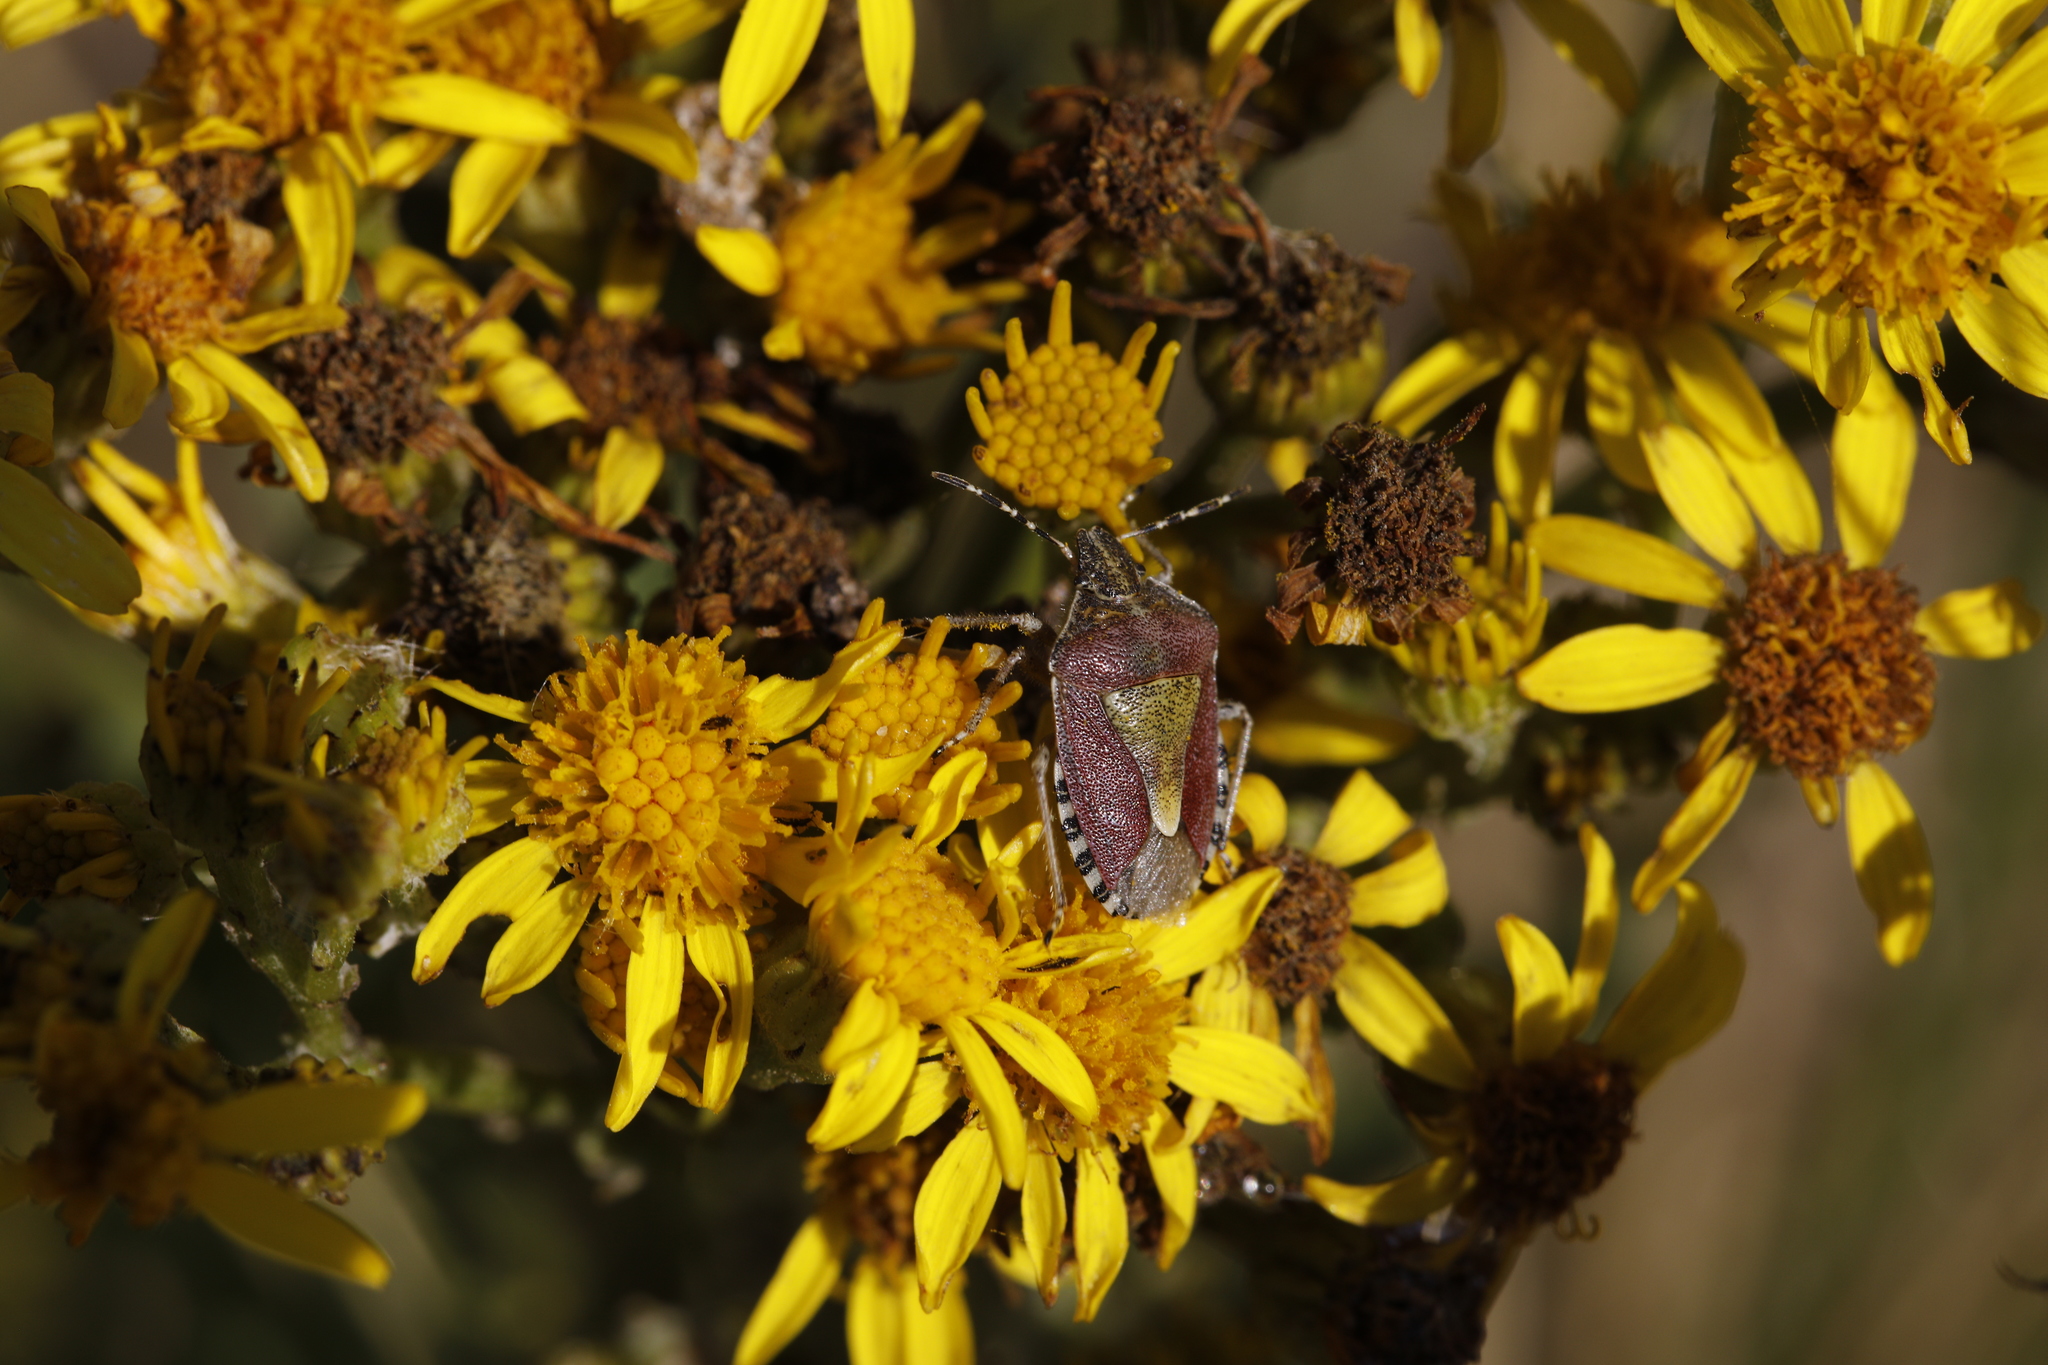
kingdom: Animalia
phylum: Arthropoda
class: Insecta
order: Hemiptera
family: Pentatomidae
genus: Dolycoris
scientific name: Dolycoris baccarum
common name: Sloe bug
